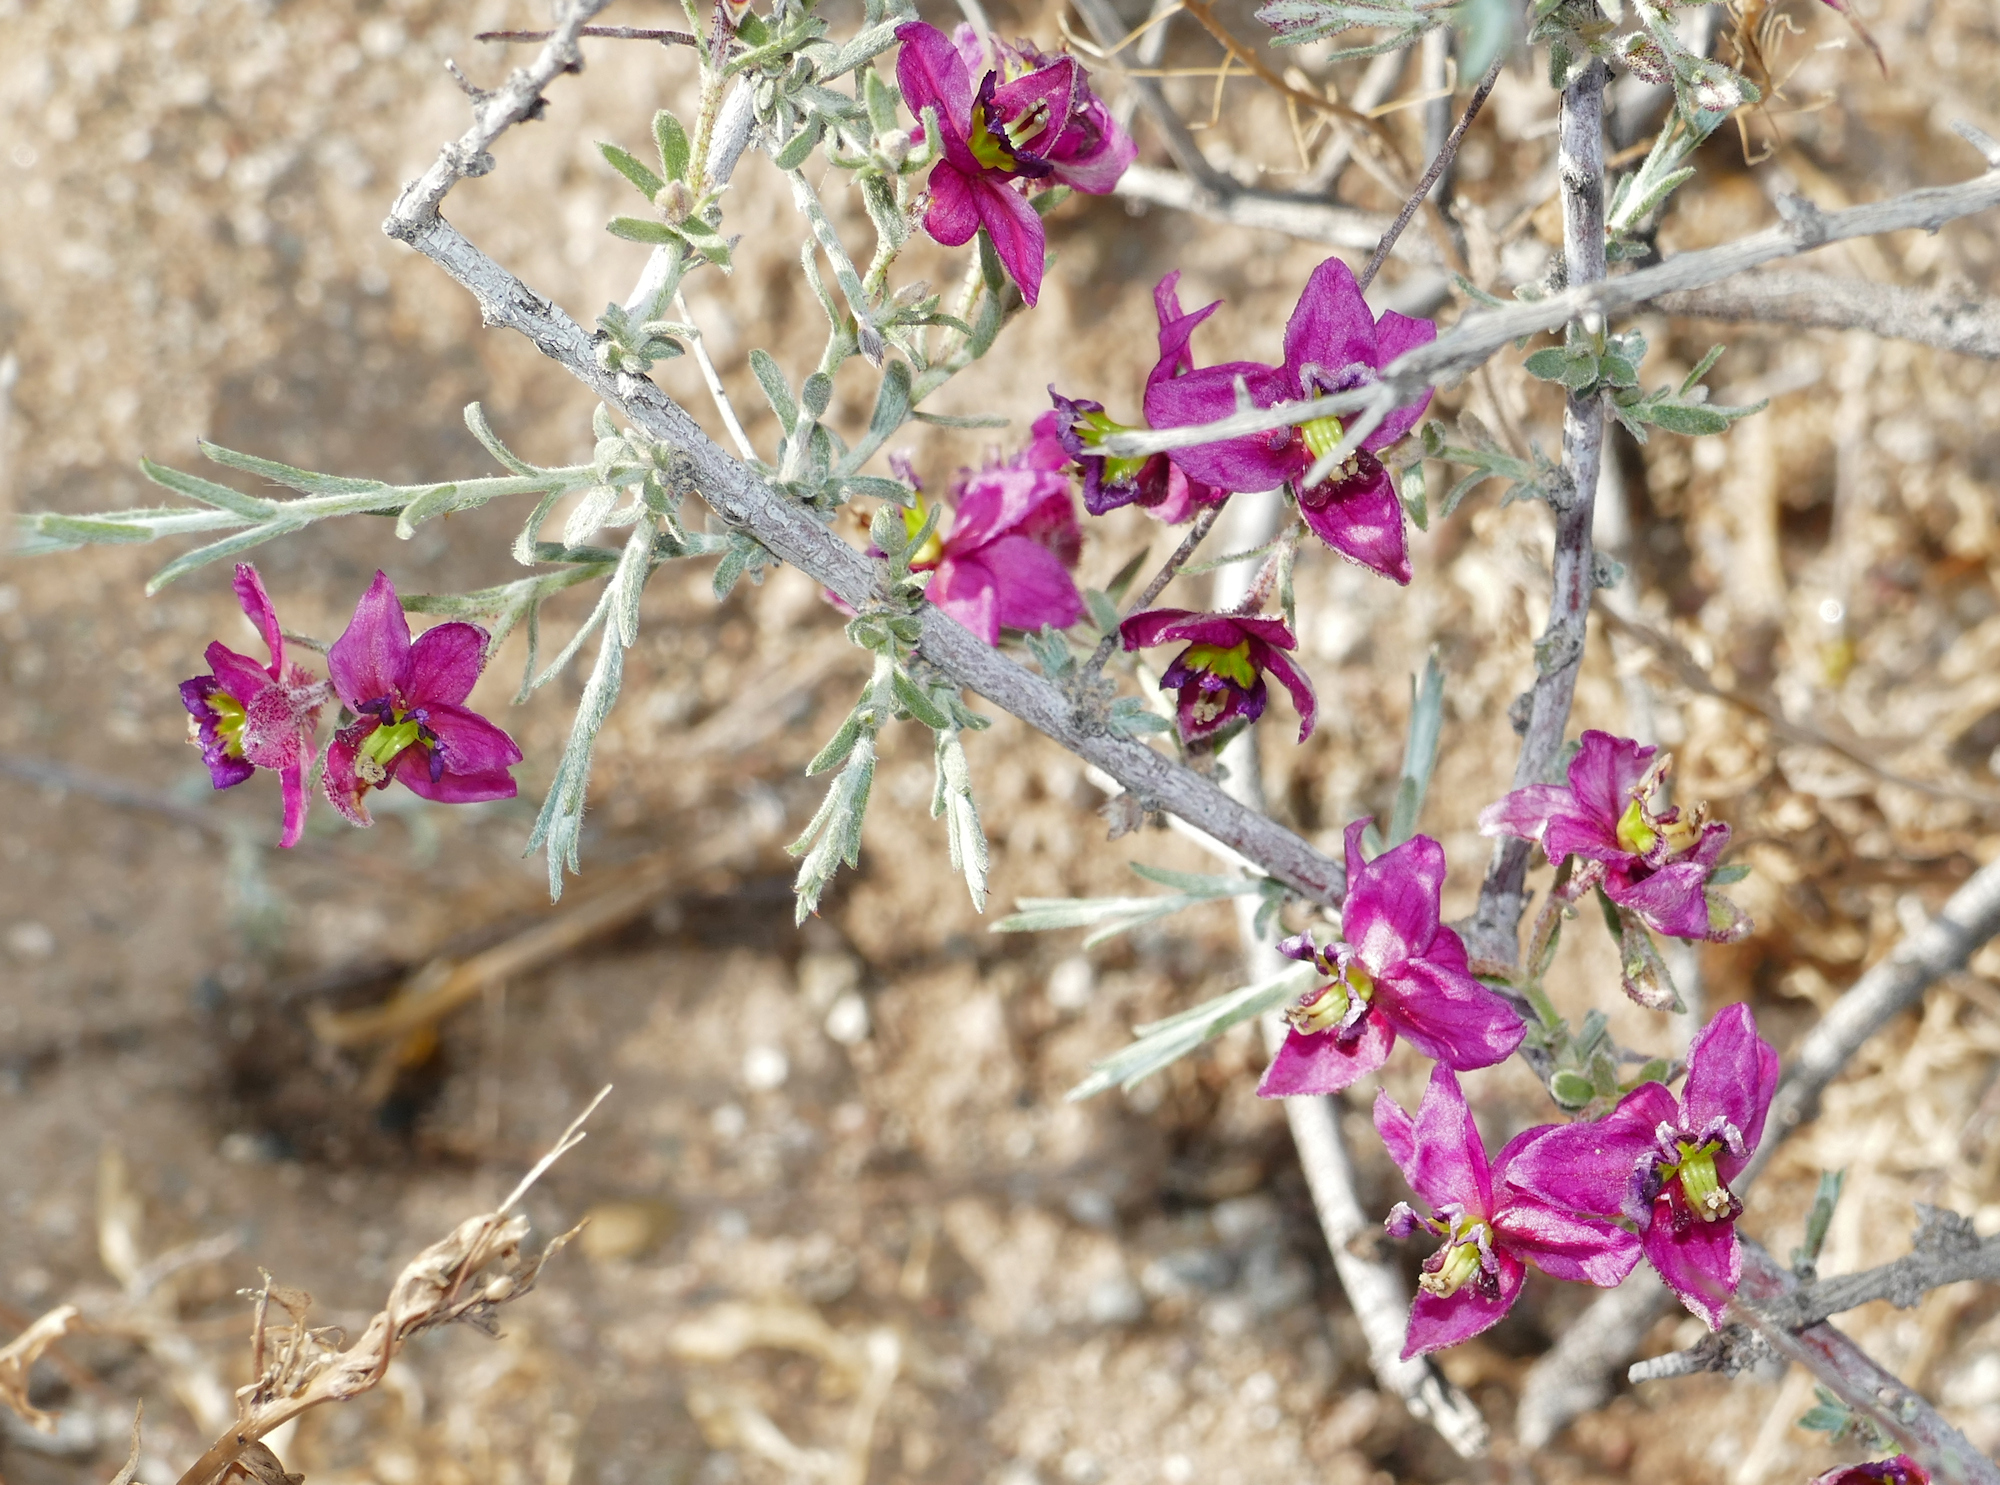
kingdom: Plantae
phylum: Tracheophyta
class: Magnoliopsida
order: Zygophyllales
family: Krameriaceae
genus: Krameria
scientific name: Krameria erecta
